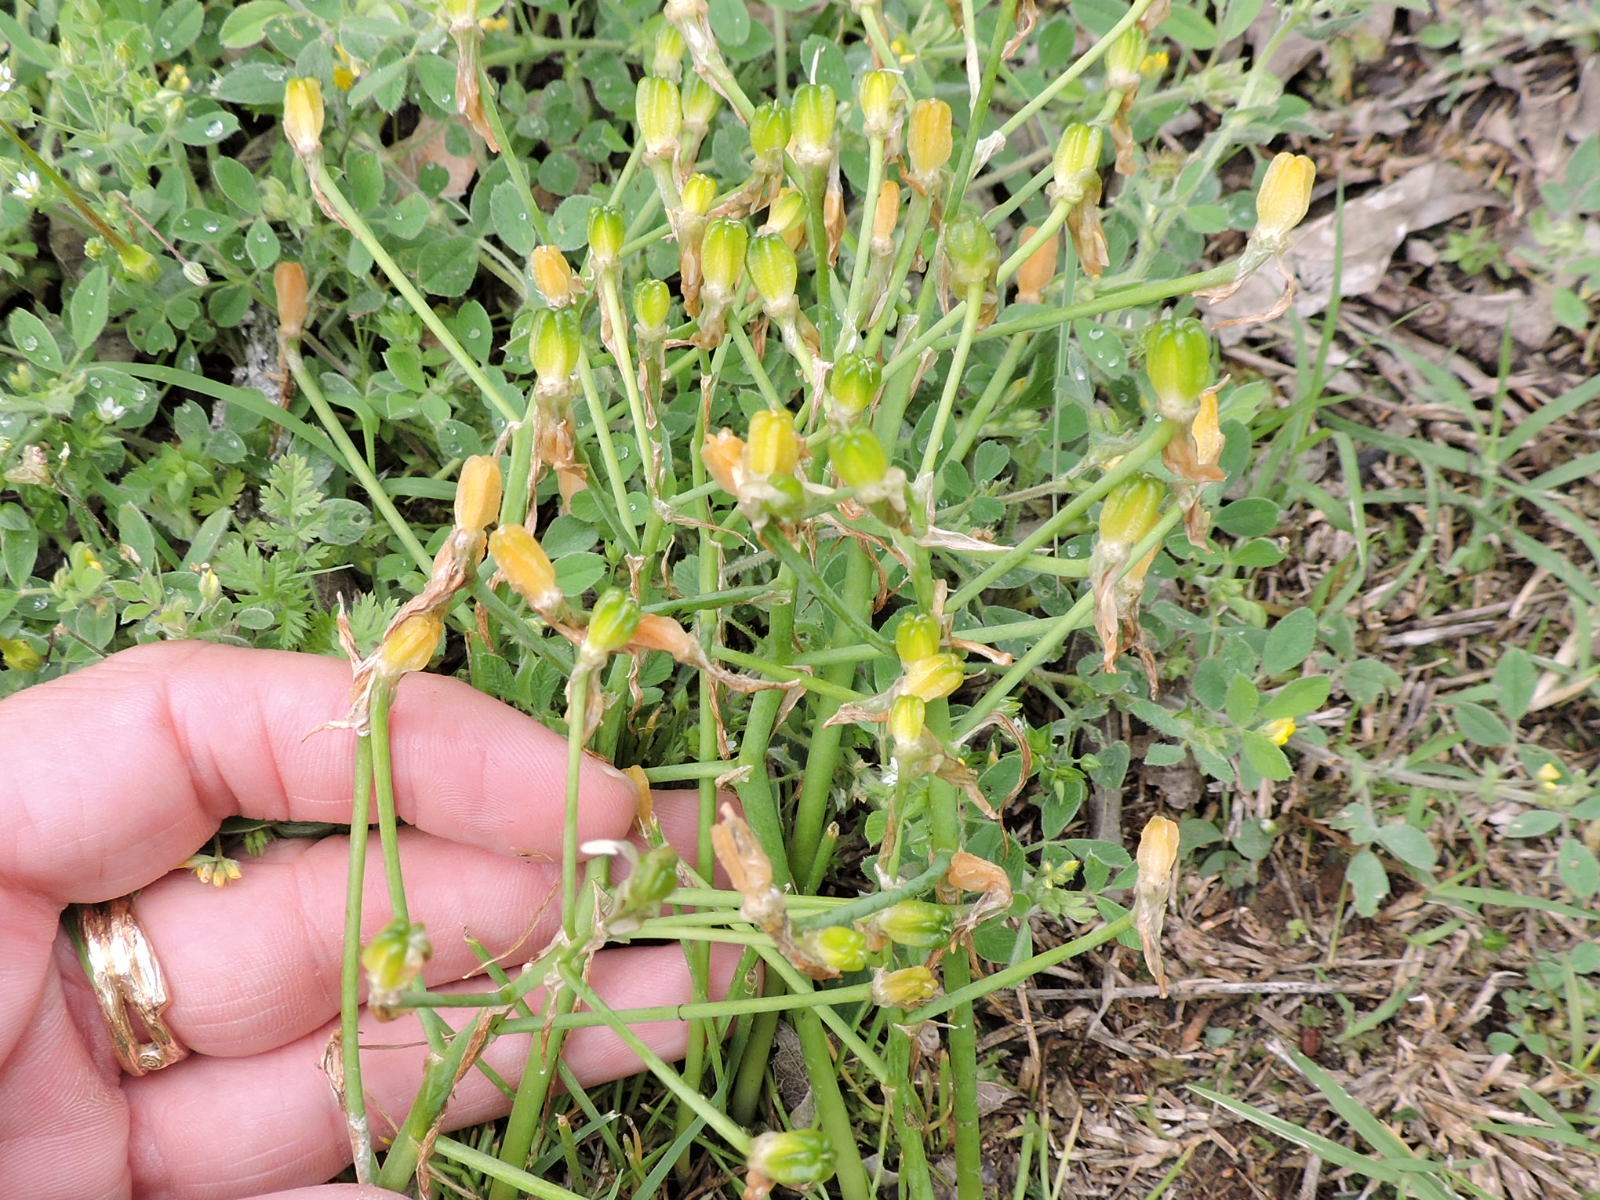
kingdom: Plantae
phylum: Tracheophyta
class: Liliopsida
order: Asparagales
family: Asparagaceae
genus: Ornithogalum
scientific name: Ornithogalum umbellatum
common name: Garden star-of-bethlehem
